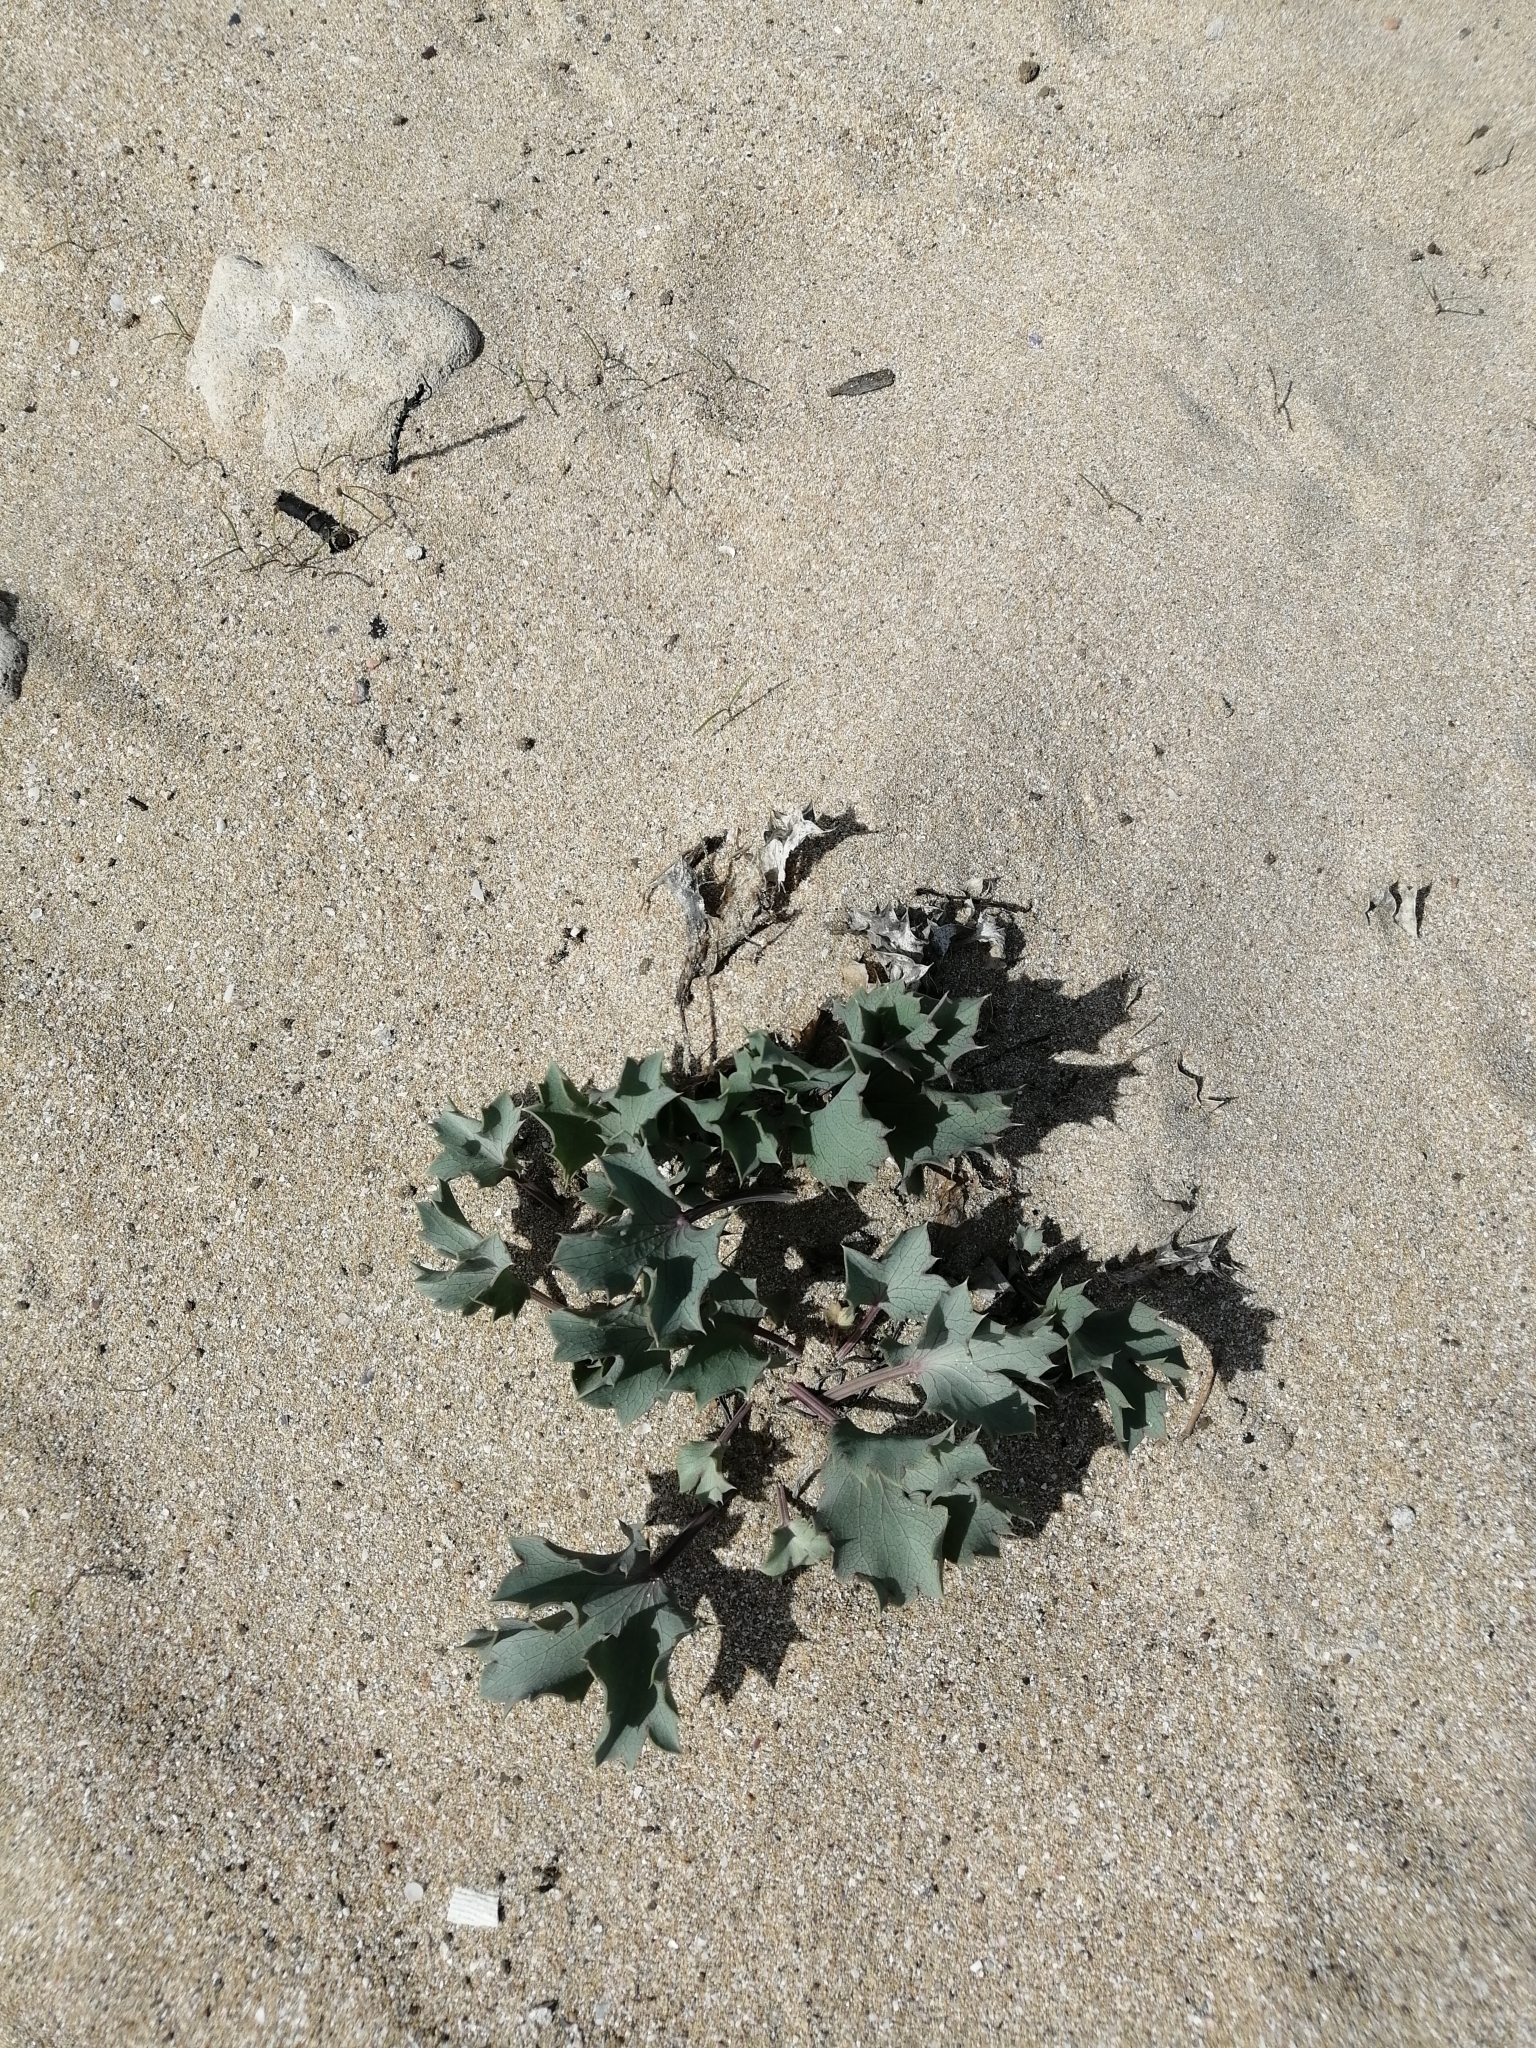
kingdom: Plantae
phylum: Tracheophyta
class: Magnoliopsida
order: Apiales
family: Apiaceae
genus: Eryngium
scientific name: Eryngium maritimum
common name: Sea-holly
